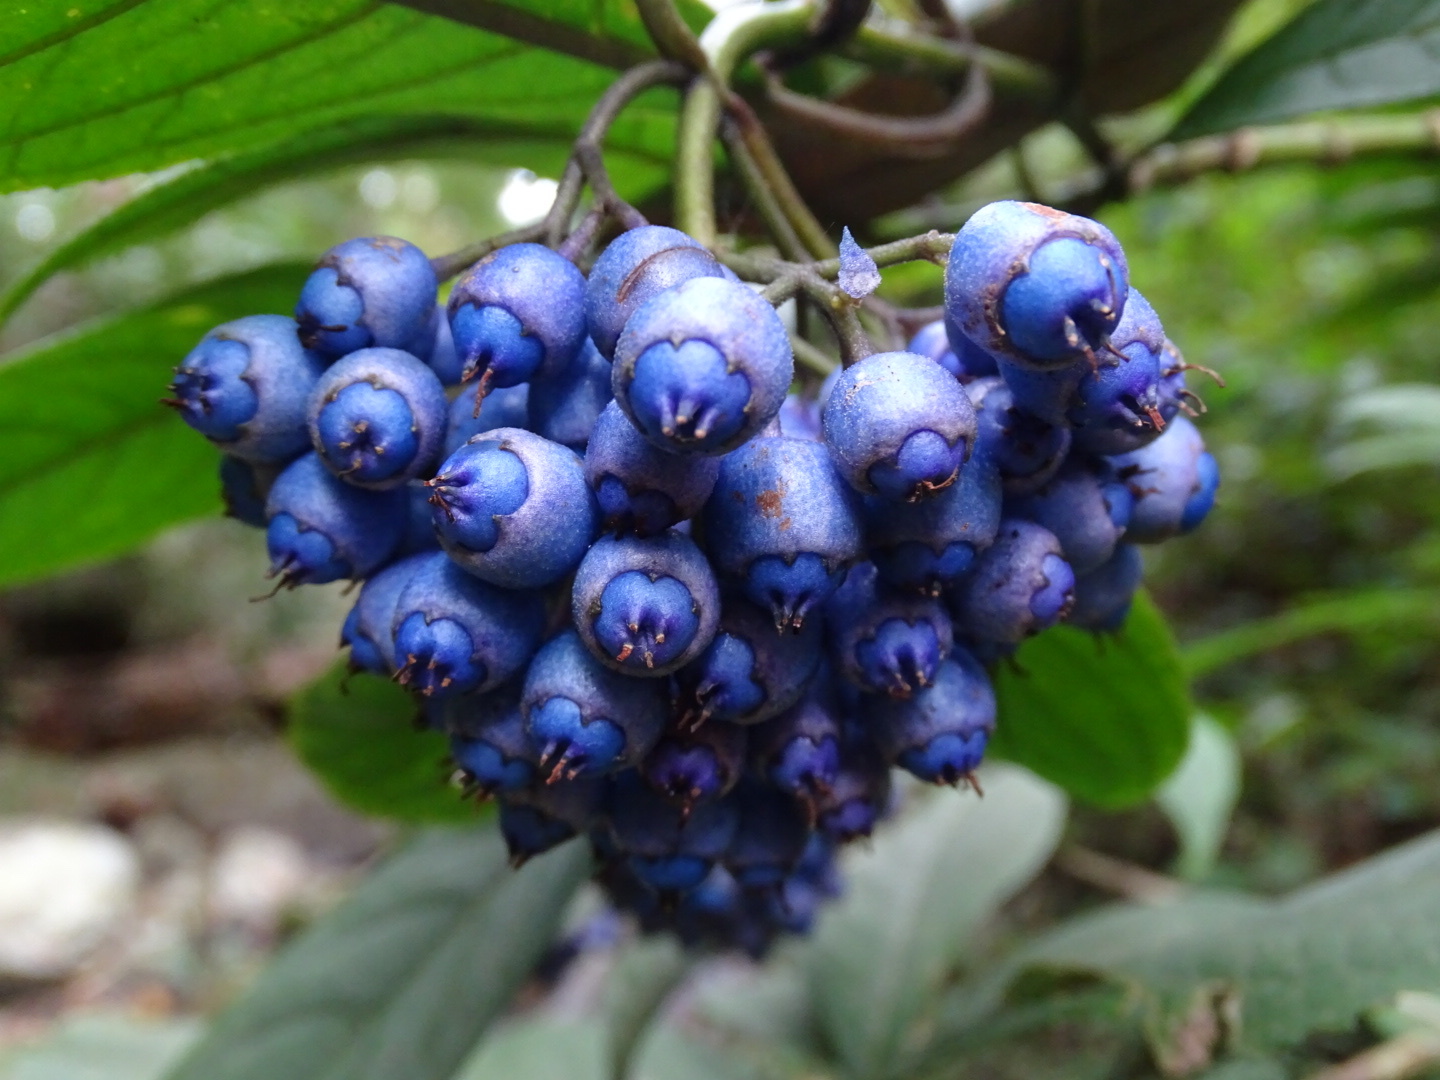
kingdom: Plantae
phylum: Tracheophyta
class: Magnoliopsida
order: Cornales
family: Hydrangeaceae
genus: Hydrangea
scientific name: Hydrangea febrifuga
